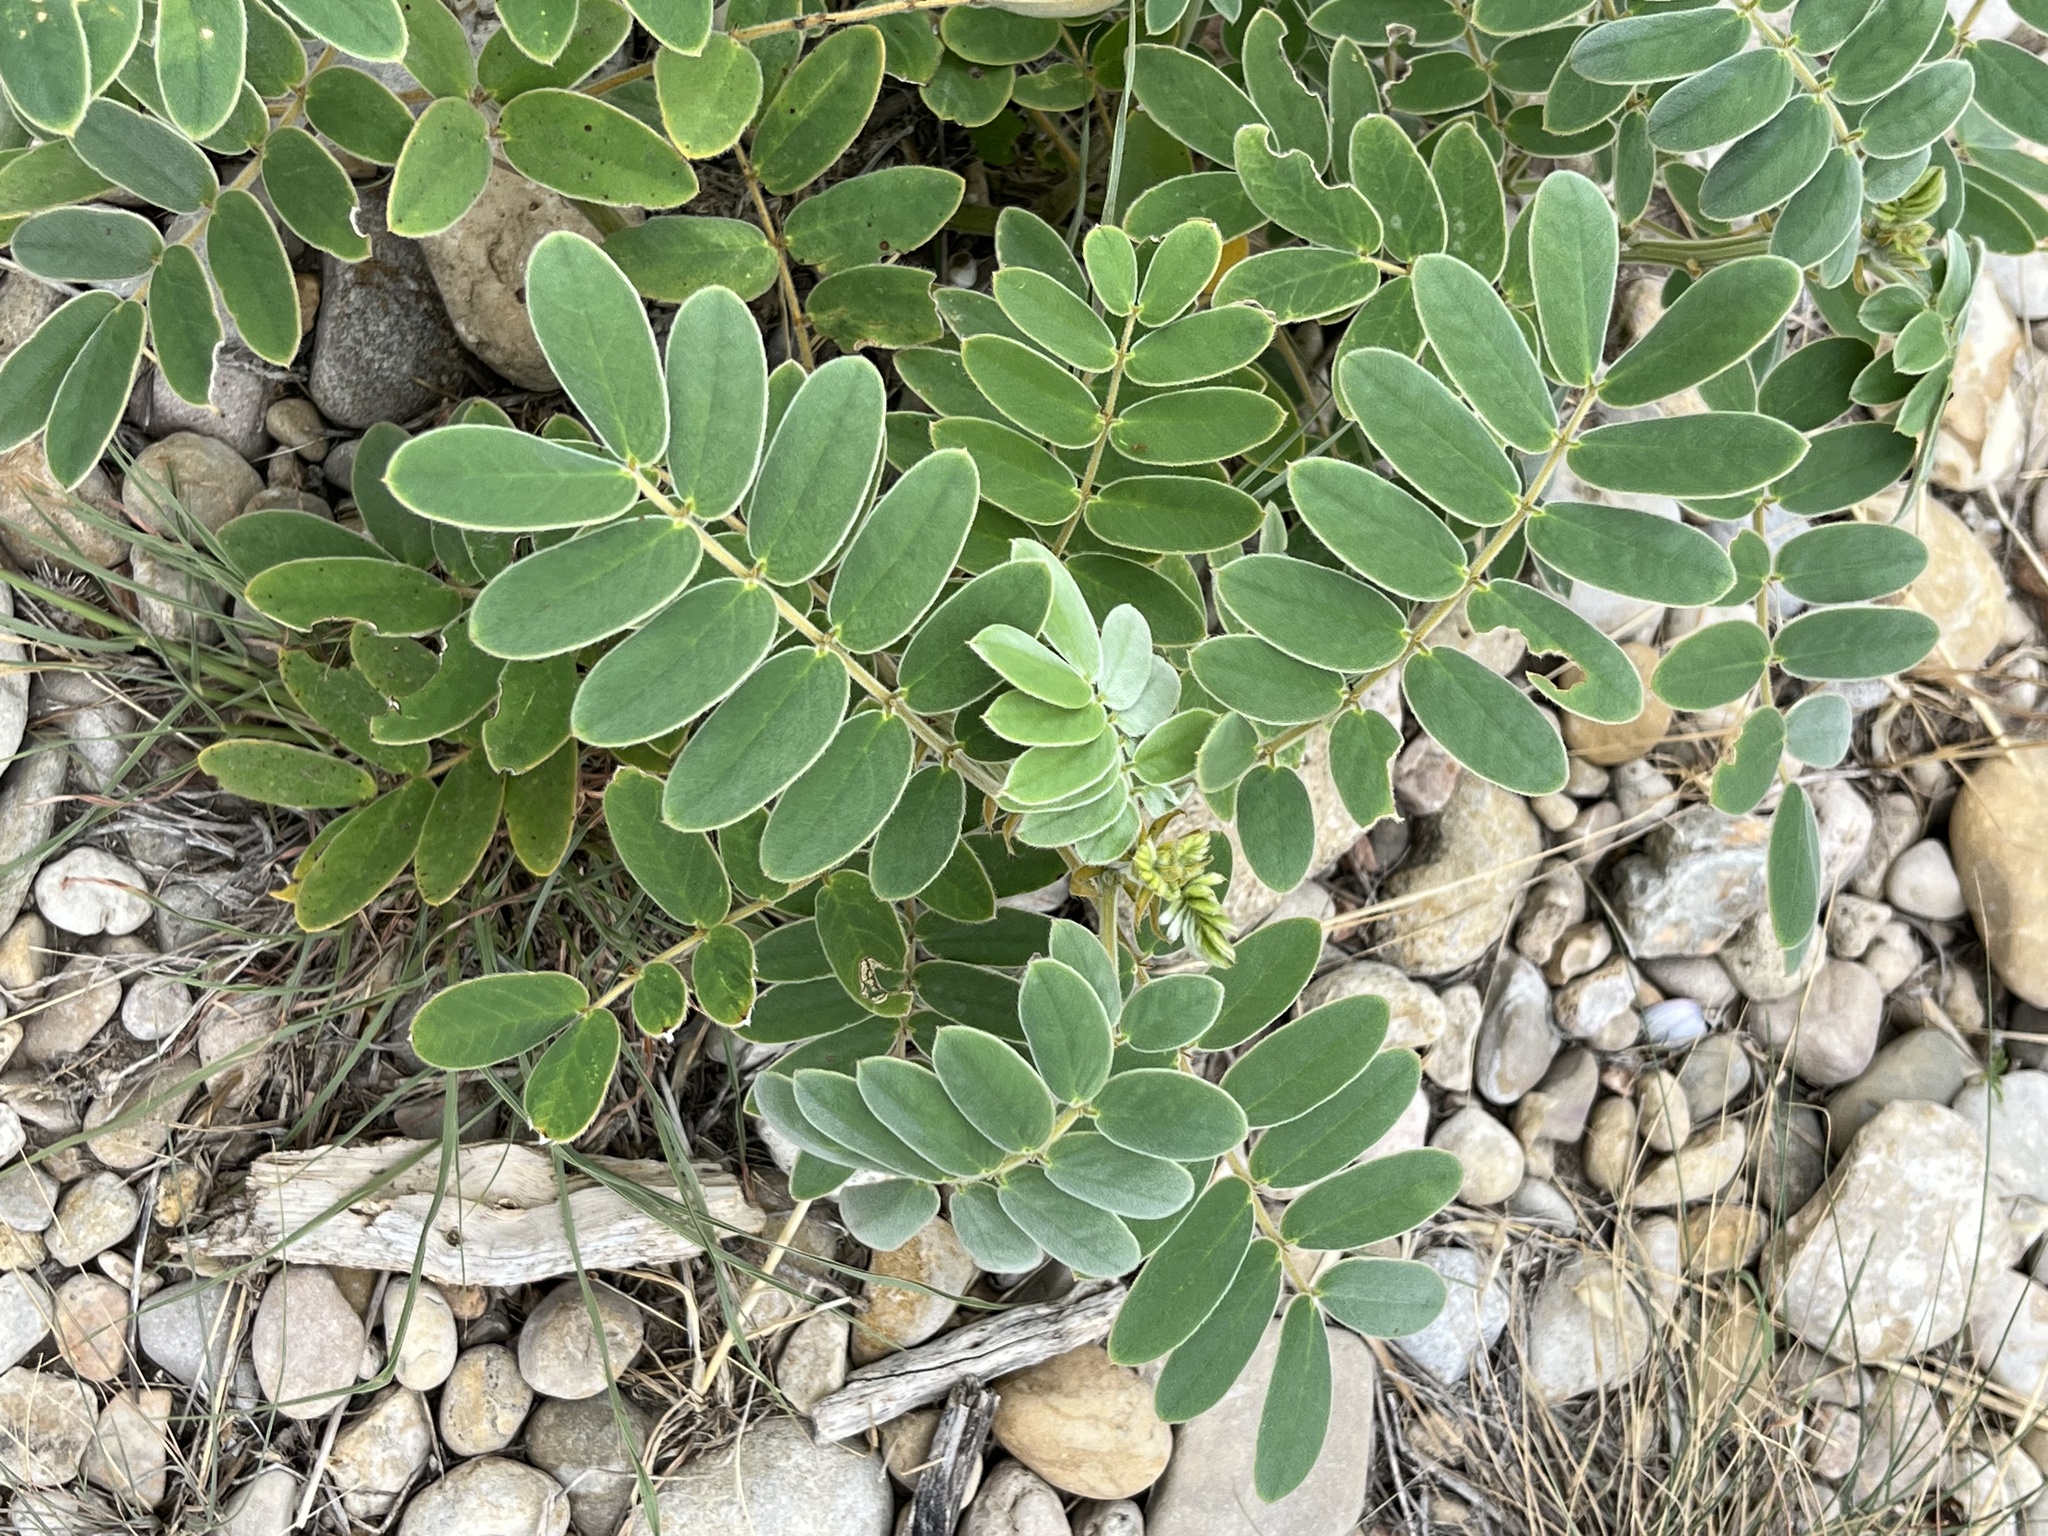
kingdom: Plantae
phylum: Tracheophyta
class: Magnoliopsida
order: Fabales
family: Fabaceae
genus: Senna
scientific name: Senna lindheimeriana
